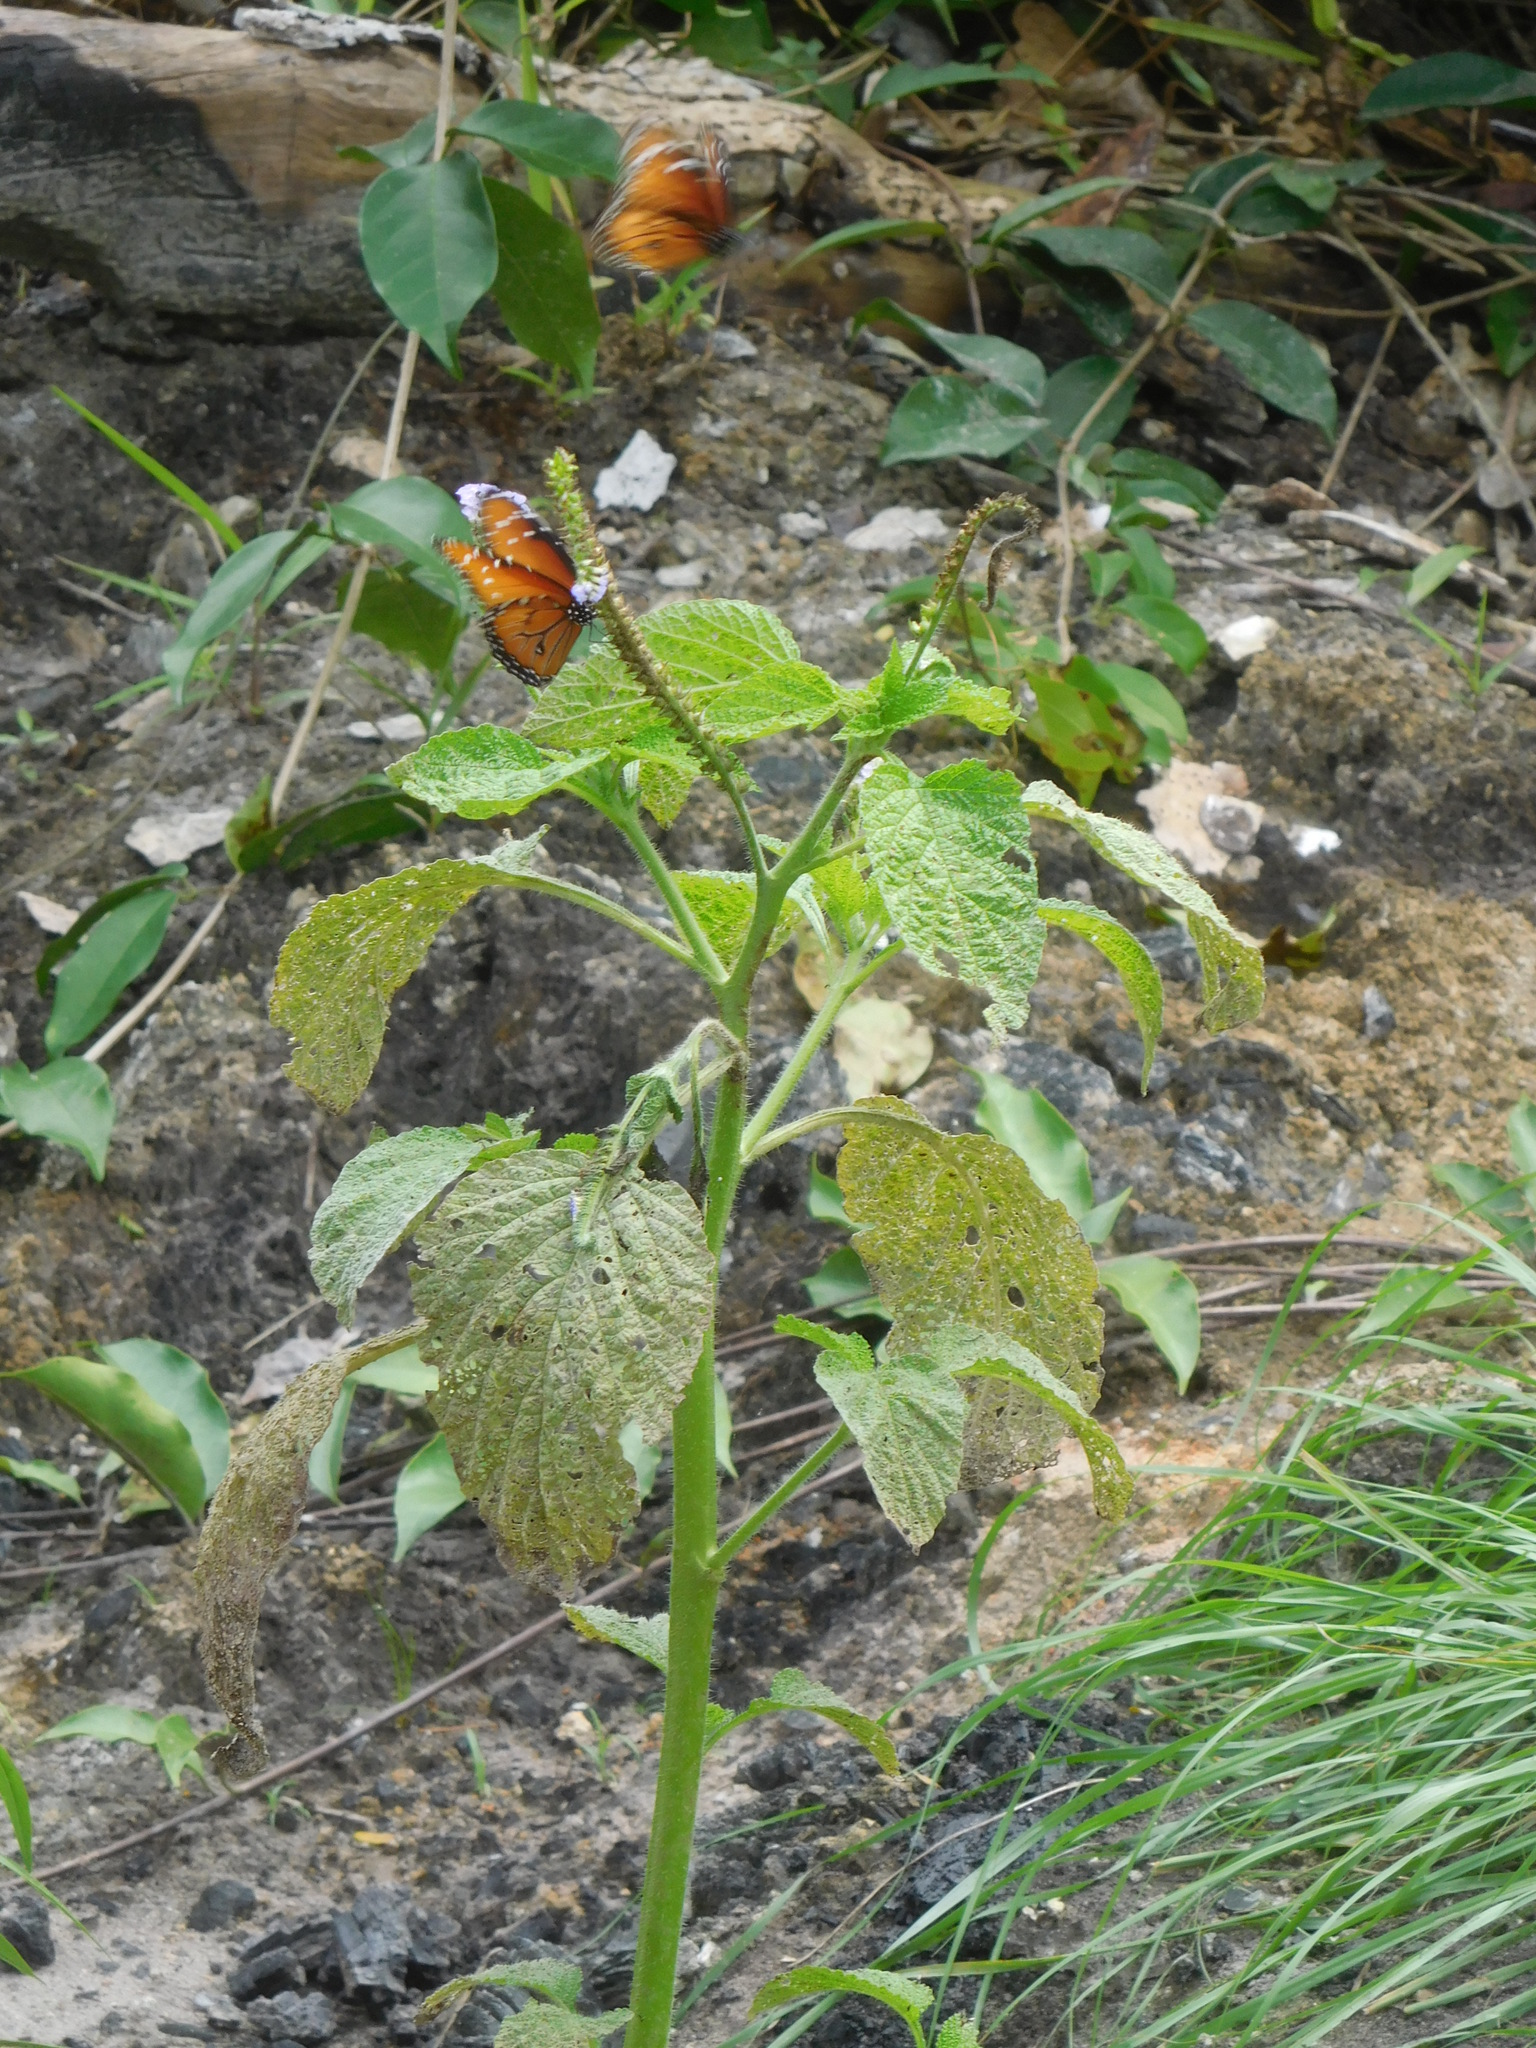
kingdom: Animalia
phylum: Arthropoda
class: Insecta
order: Lepidoptera
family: Nymphalidae
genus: Danaus
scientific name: Danaus gilippus
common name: Queen
